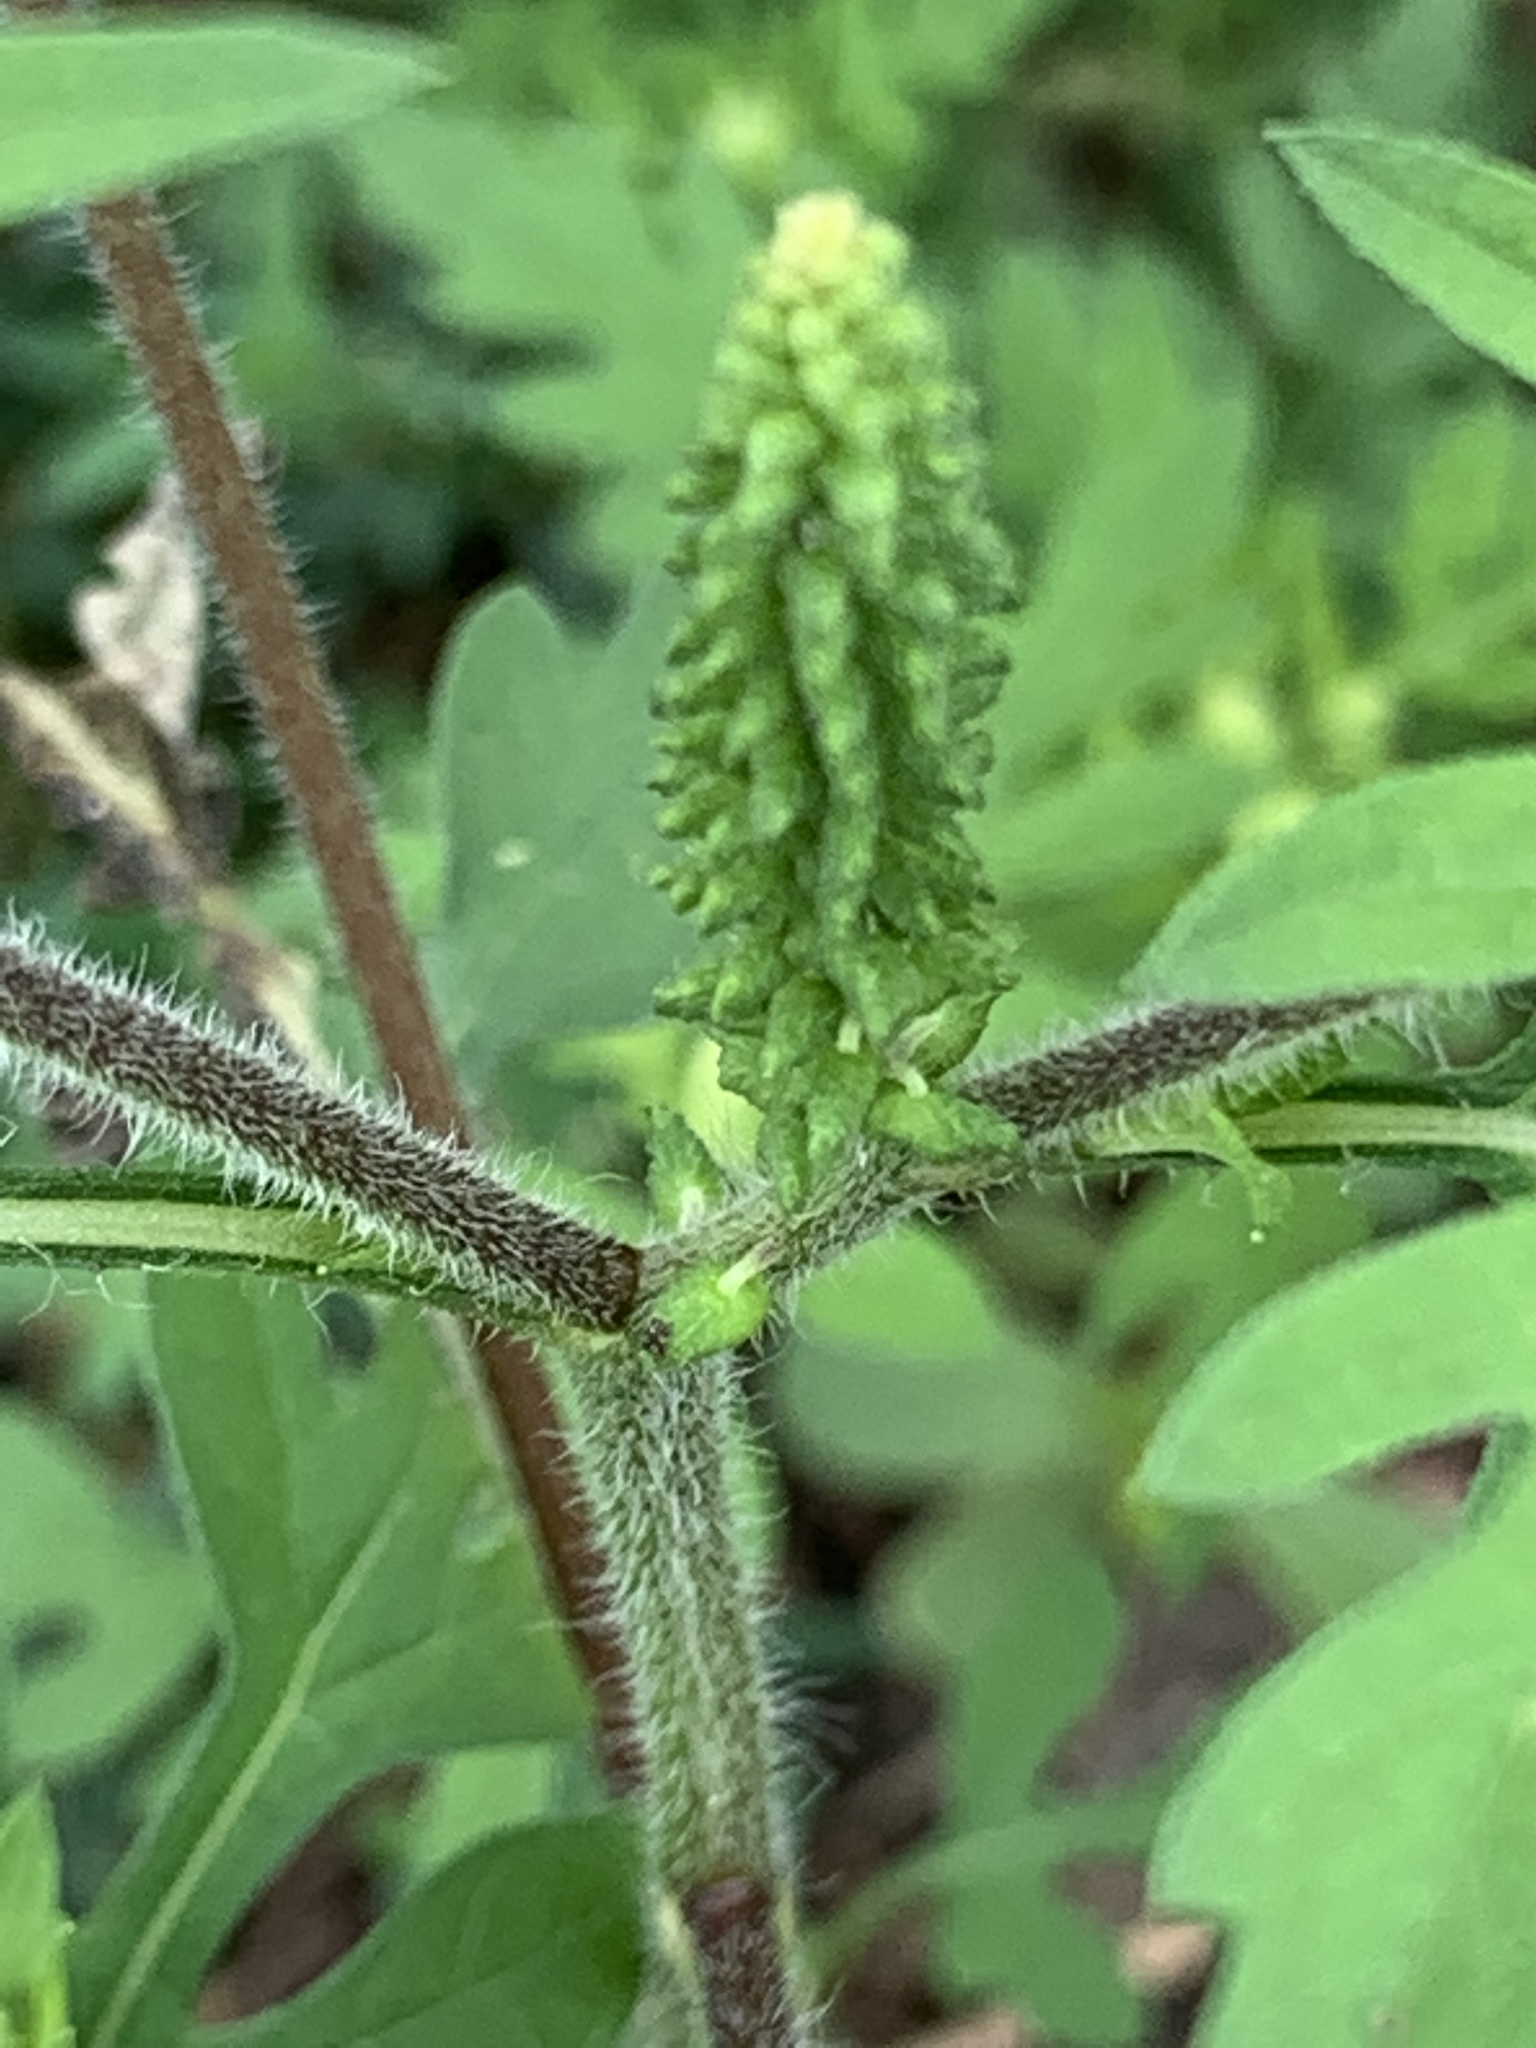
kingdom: Plantae
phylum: Tracheophyta
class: Magnoliopsida
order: Asterales
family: Asteraceae
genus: Ambrosia
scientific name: Ambrosia artemisiifolia
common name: Annual ragweed
